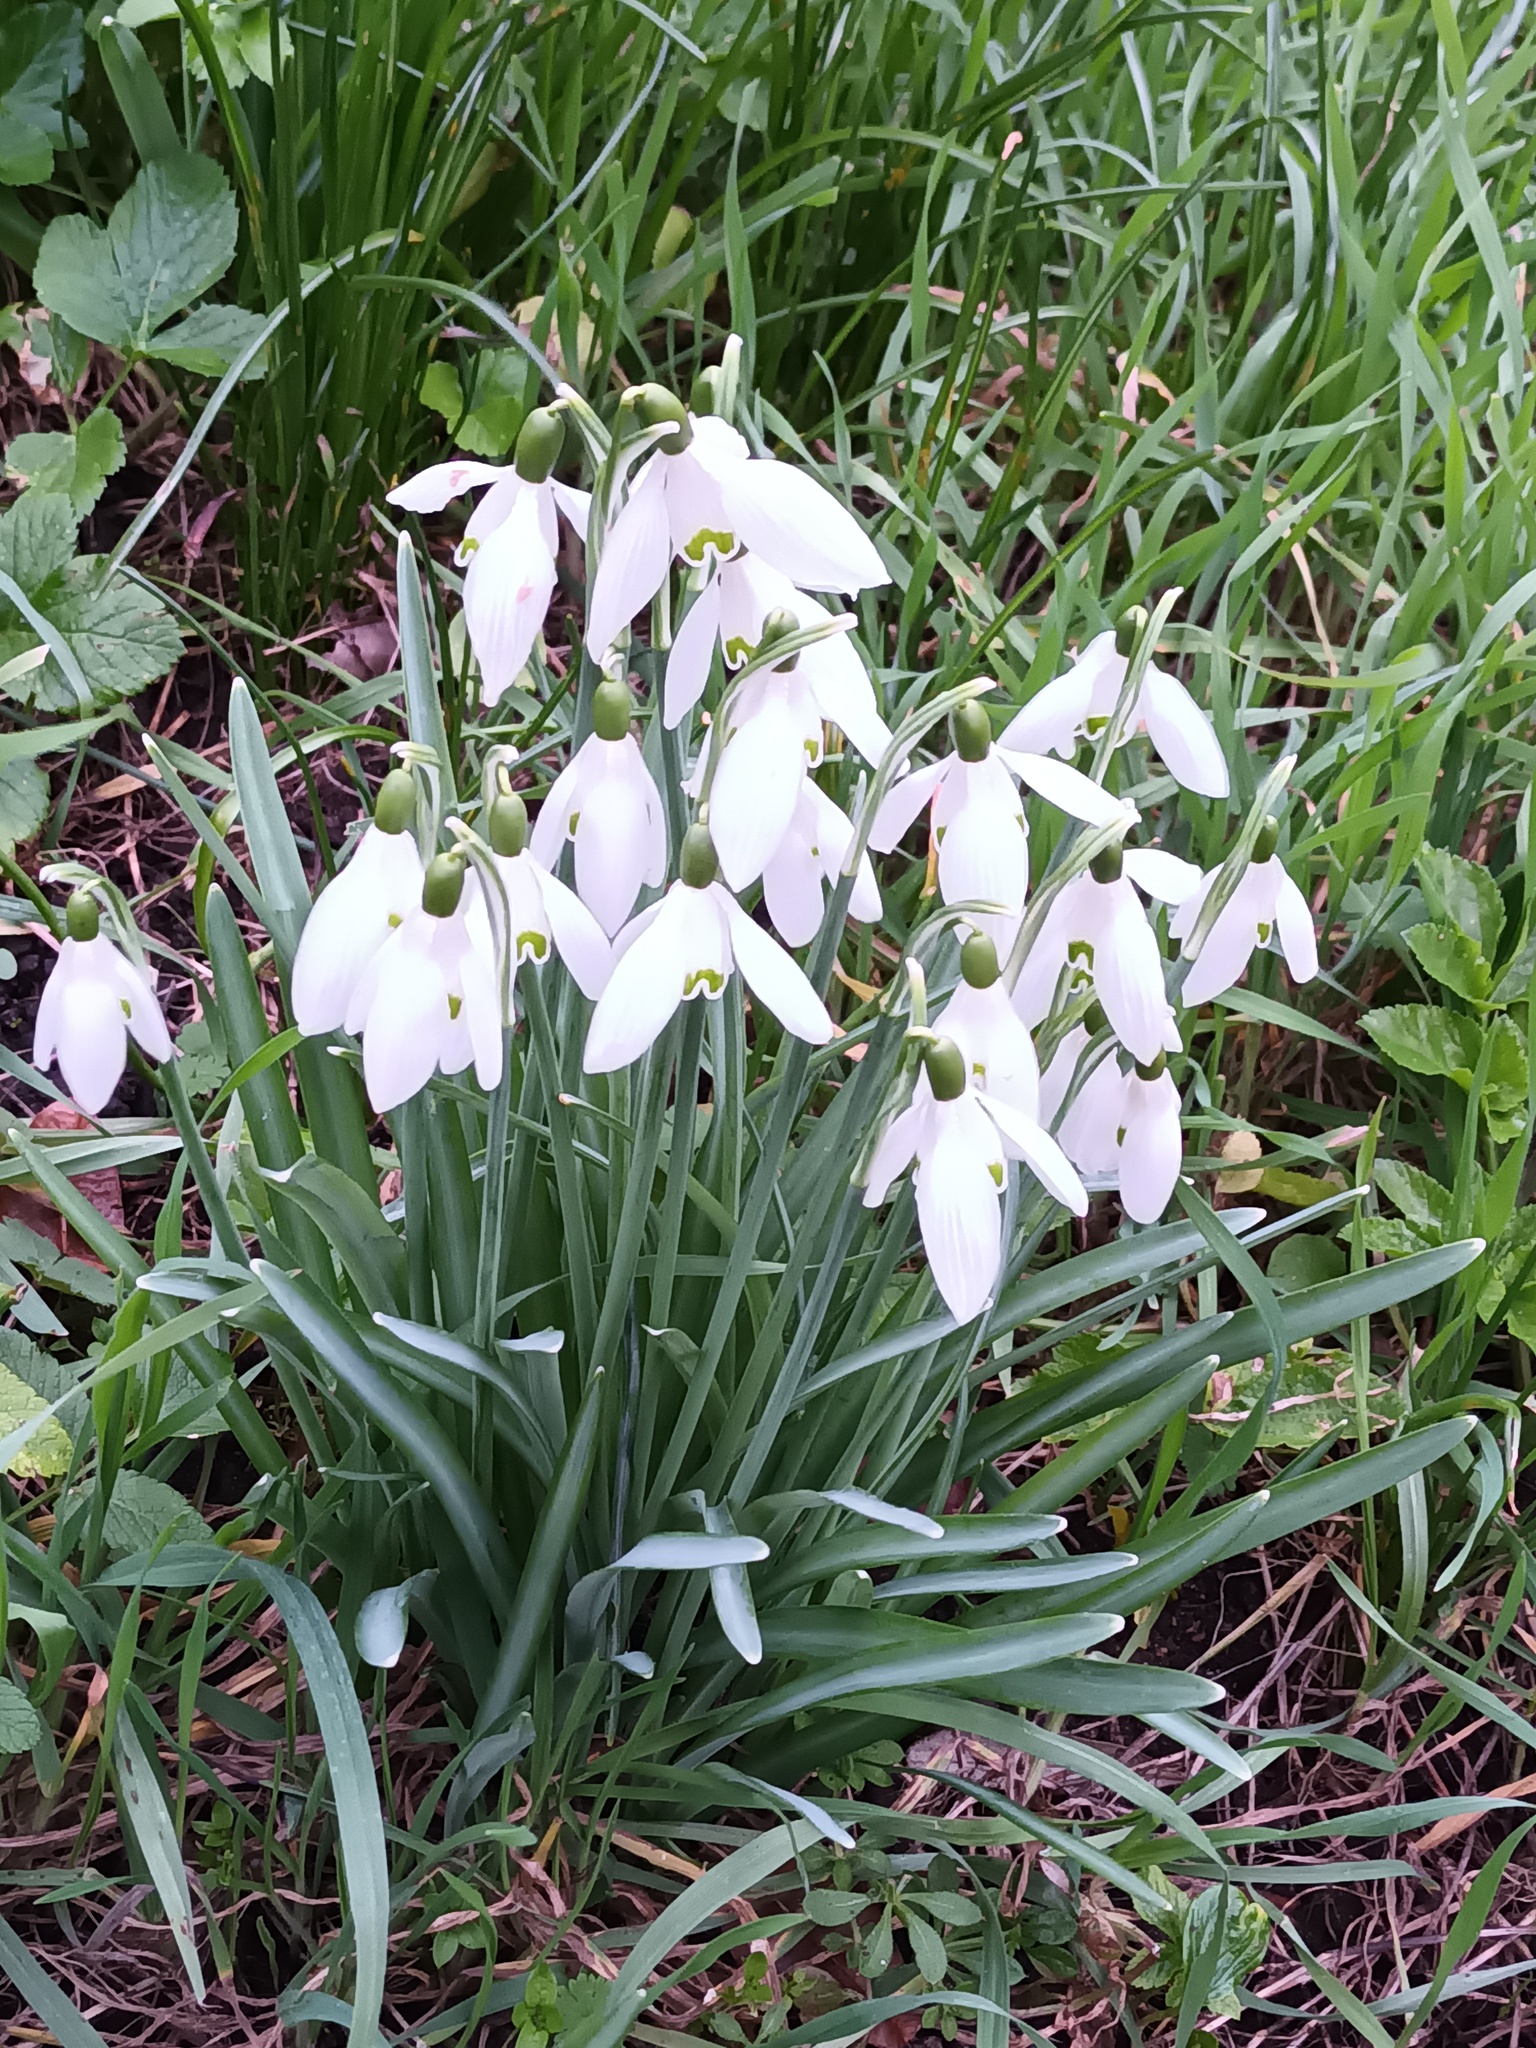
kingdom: Plantae
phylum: Tracheophyta
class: Liliopsida
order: Asparagales
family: Amaryllidaceae
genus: Galanthus
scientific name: Galanthus nivalis
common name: Snowdrop
